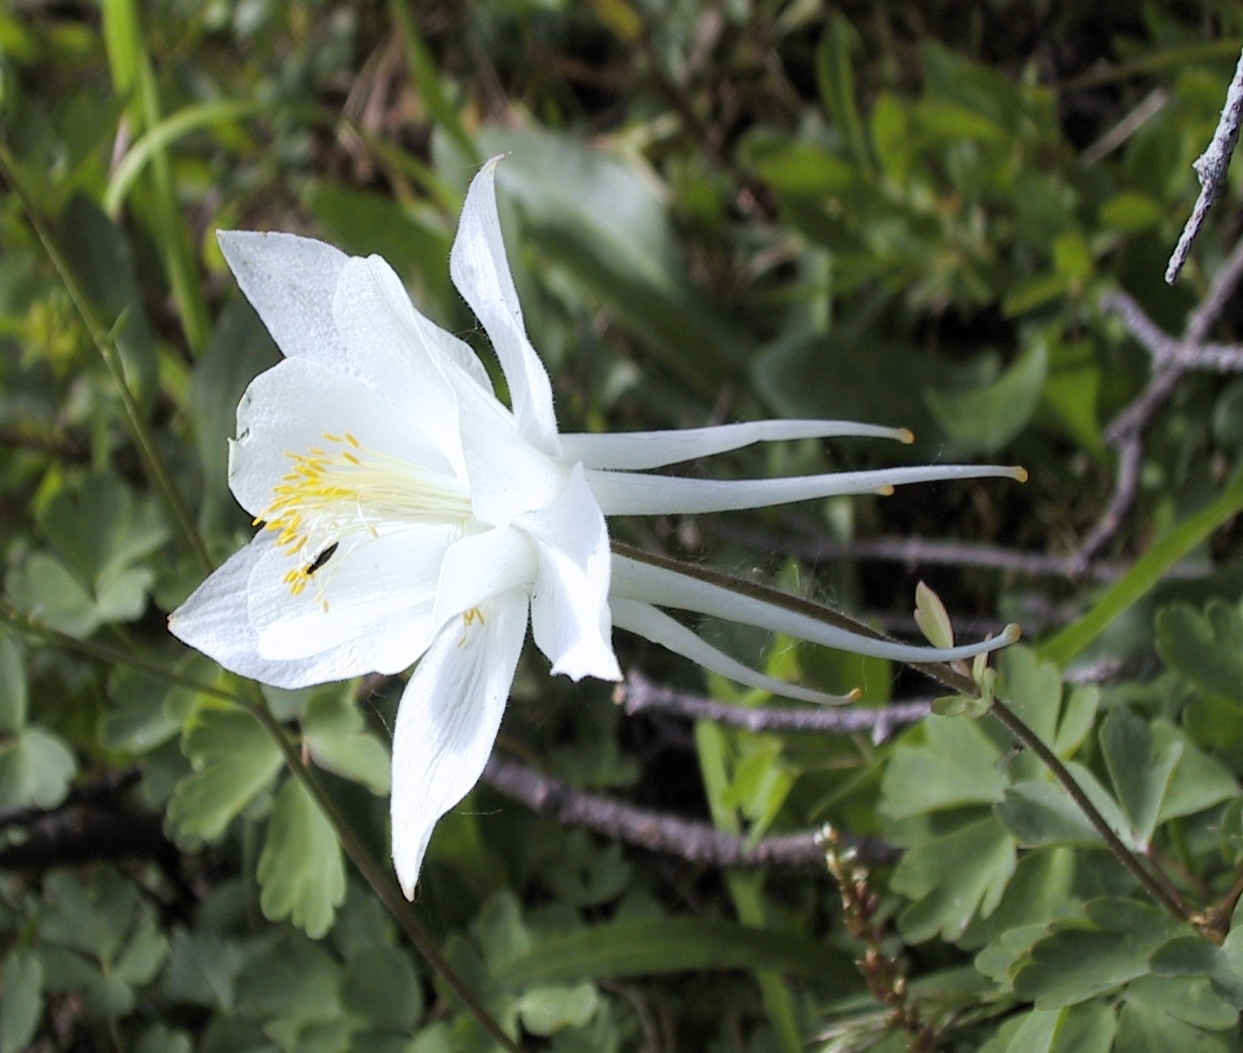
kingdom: Plantae
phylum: Tracheophyta
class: Magnoliopsida
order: Ranunculales
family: Ranunculaceae
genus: Aquilegia
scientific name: Aquilegia coerulea
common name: Rocky mountain columbine
